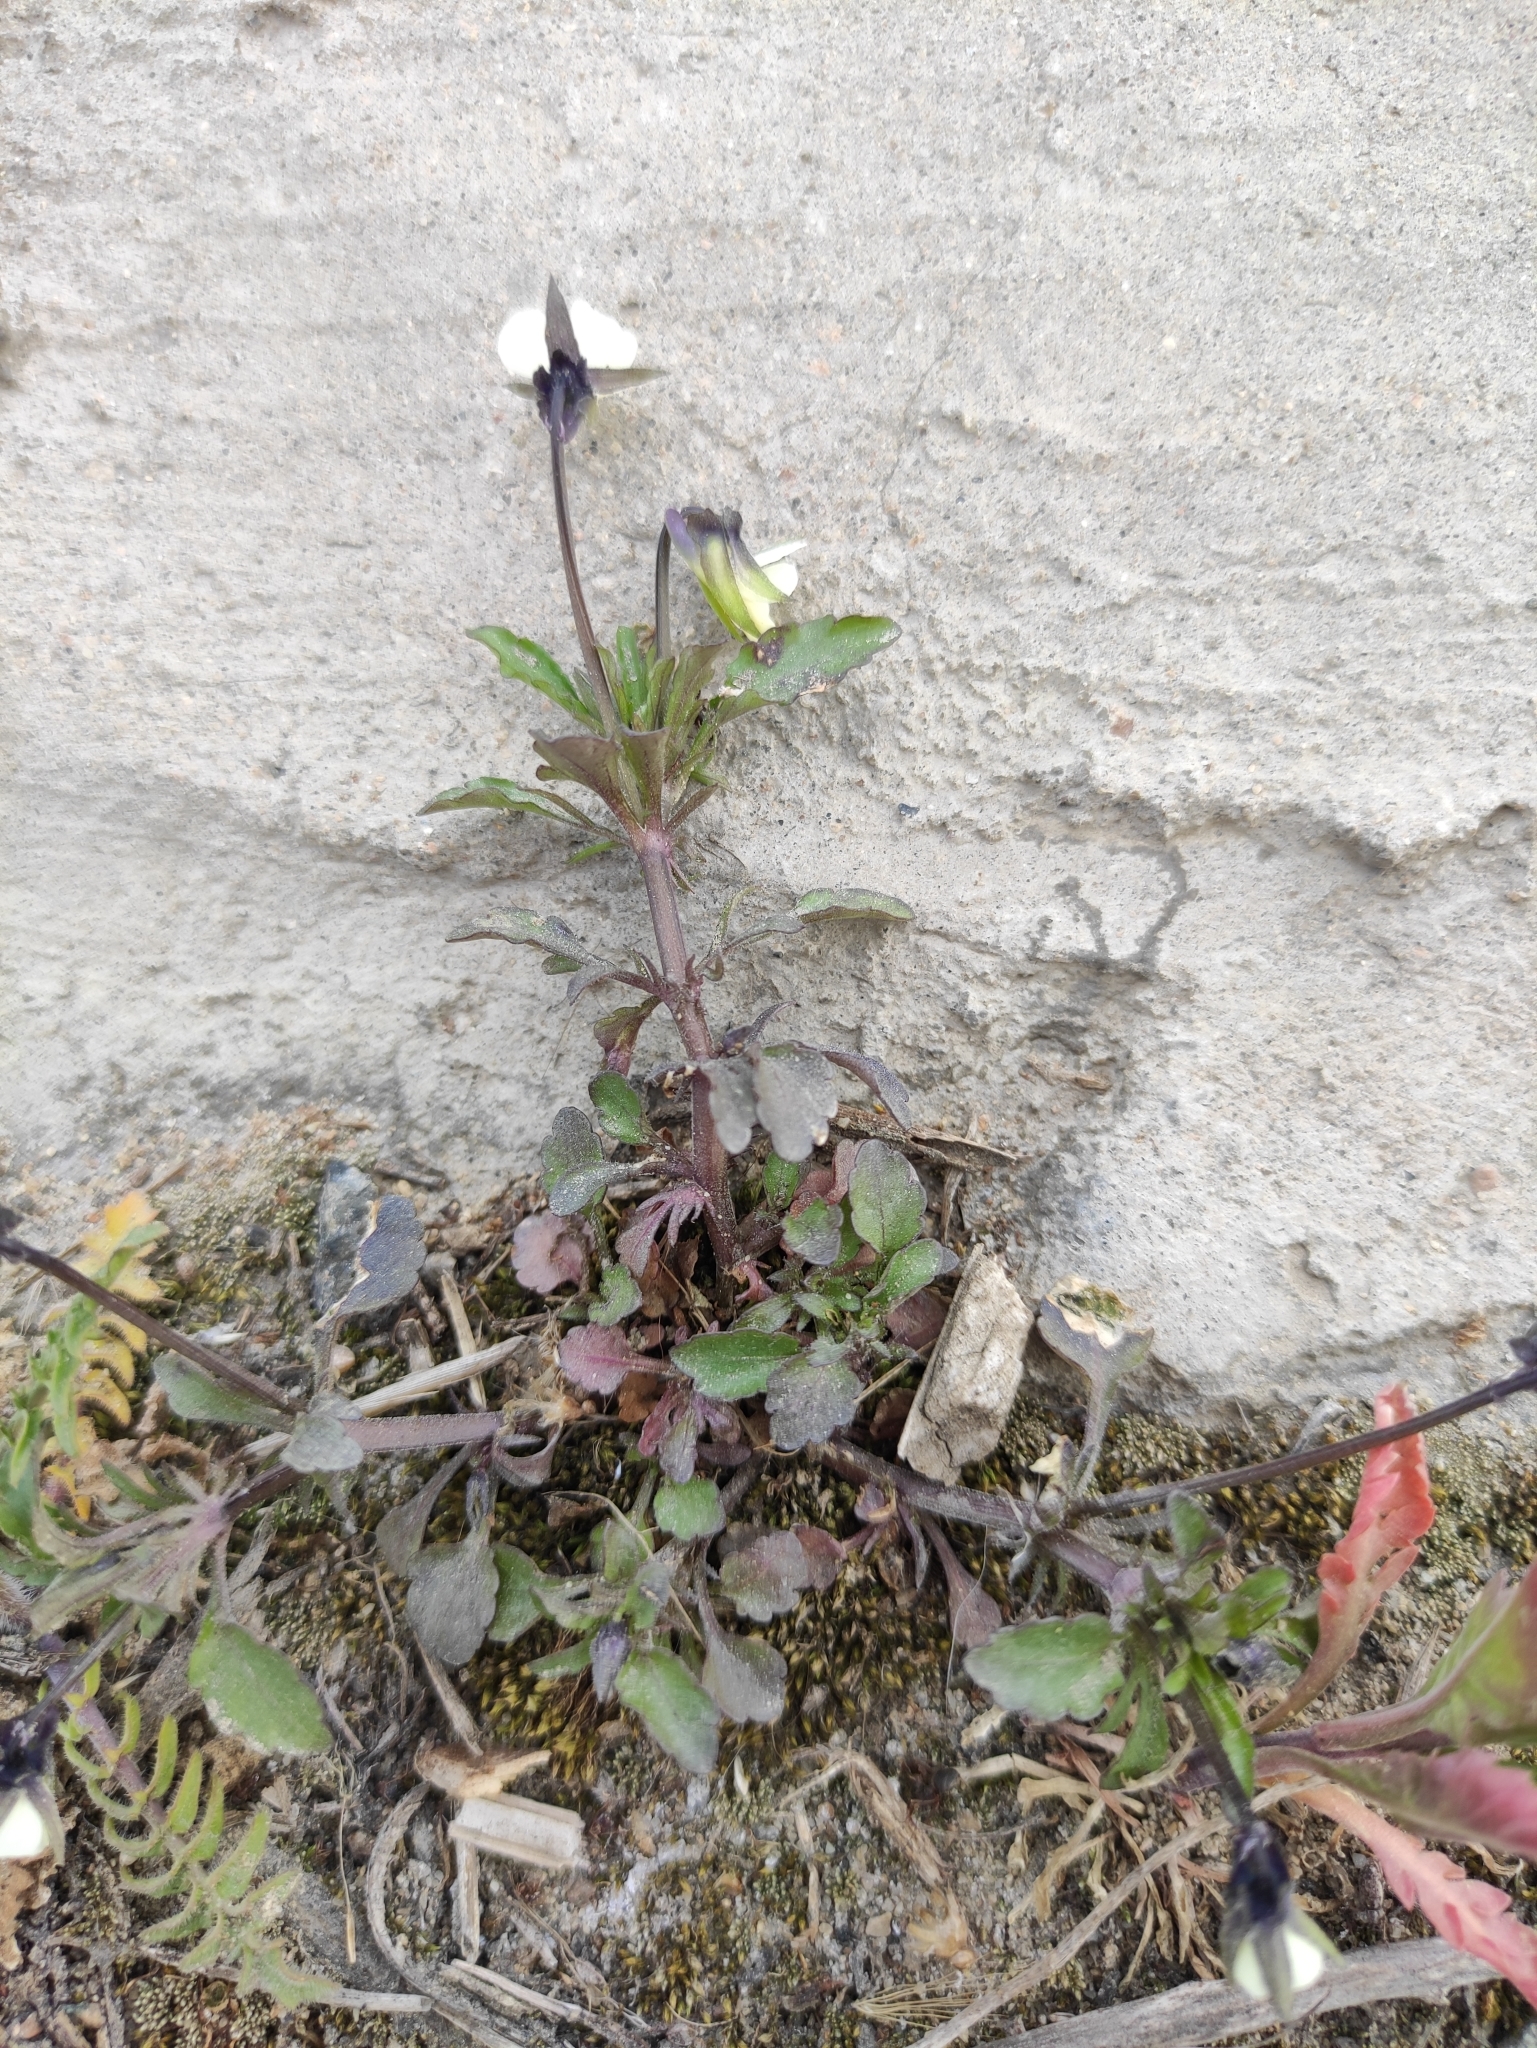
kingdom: Plantae
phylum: Tracheophyta
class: Magnoliopsida
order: Malpighiales
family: Violaceae
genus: Viola
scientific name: Viola arvensis
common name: Field pansy
